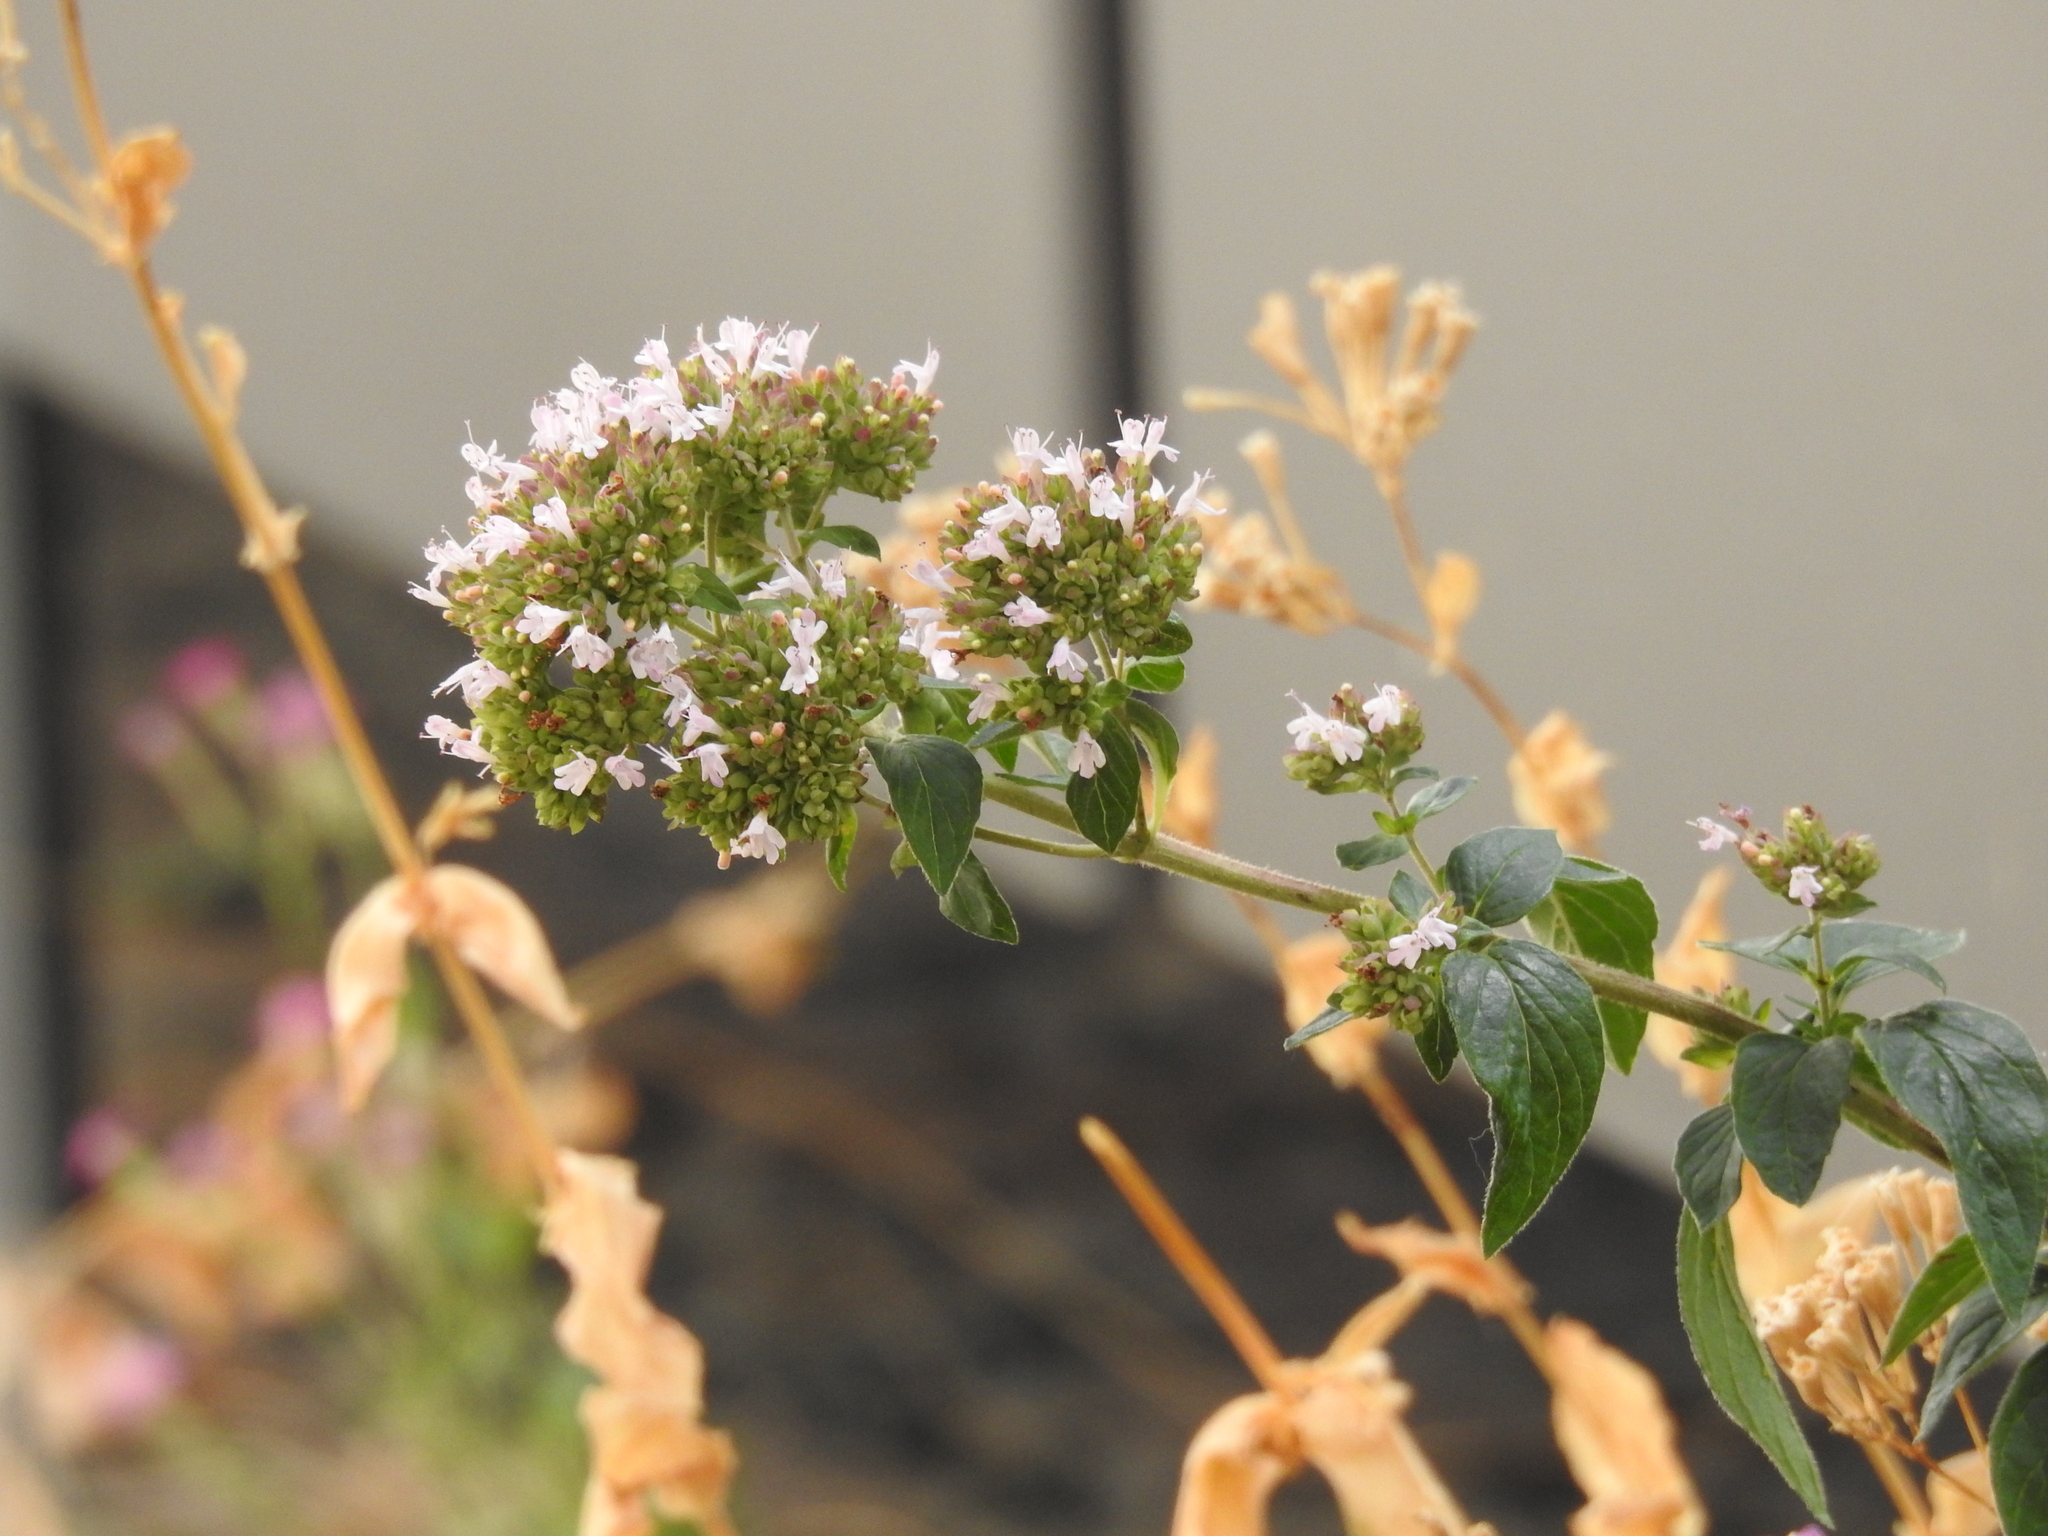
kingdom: Plantae
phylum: Tracheophyta
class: Magnoliopsida
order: Lamiales
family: Lamiaceae
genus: Origanum
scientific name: Origanum vulgare
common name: Wild marjoram
